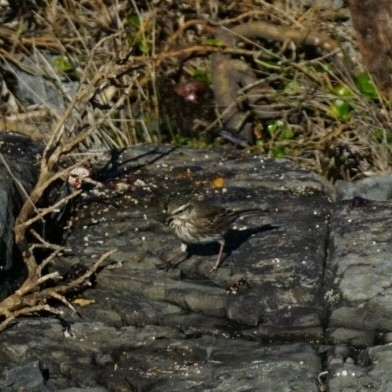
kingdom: Animalia
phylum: Chordata
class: Aves
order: Passeriformes
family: Motacillidae
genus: Anthus
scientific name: Anthus novaeseelandiae
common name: New zealand pipit
